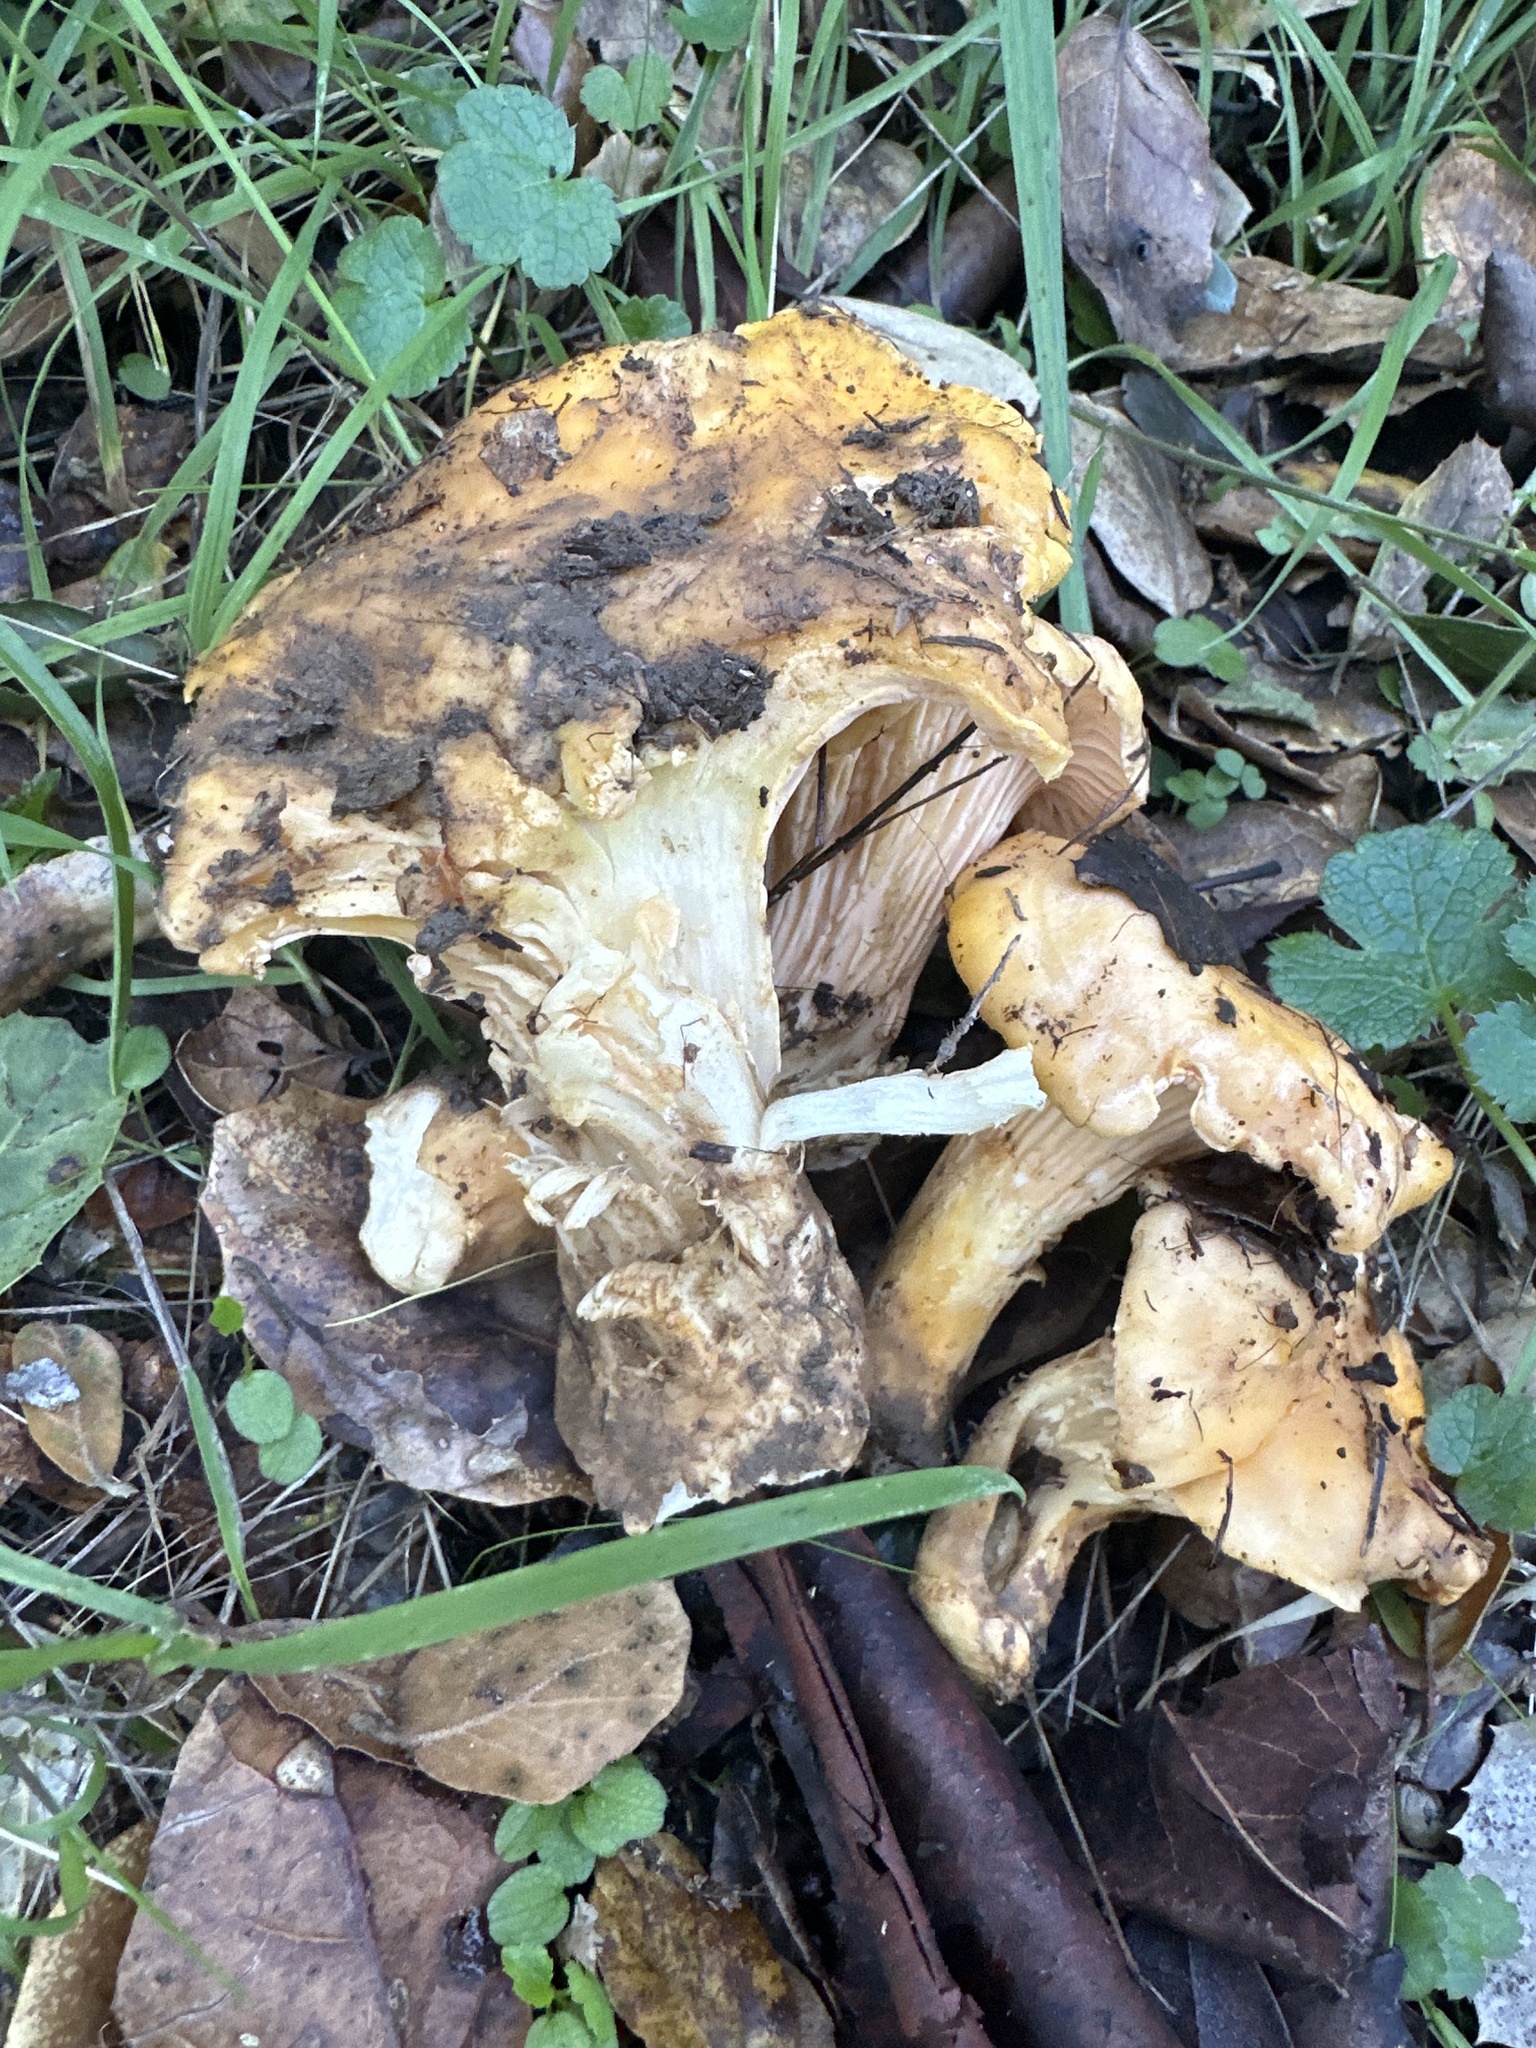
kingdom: Fungi
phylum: Basidiomycota
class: Agaricomycetes
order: Cantharellales
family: Hydnaceae
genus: Cantharellus
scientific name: Cantharellus californicus
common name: California golden chanterelle
